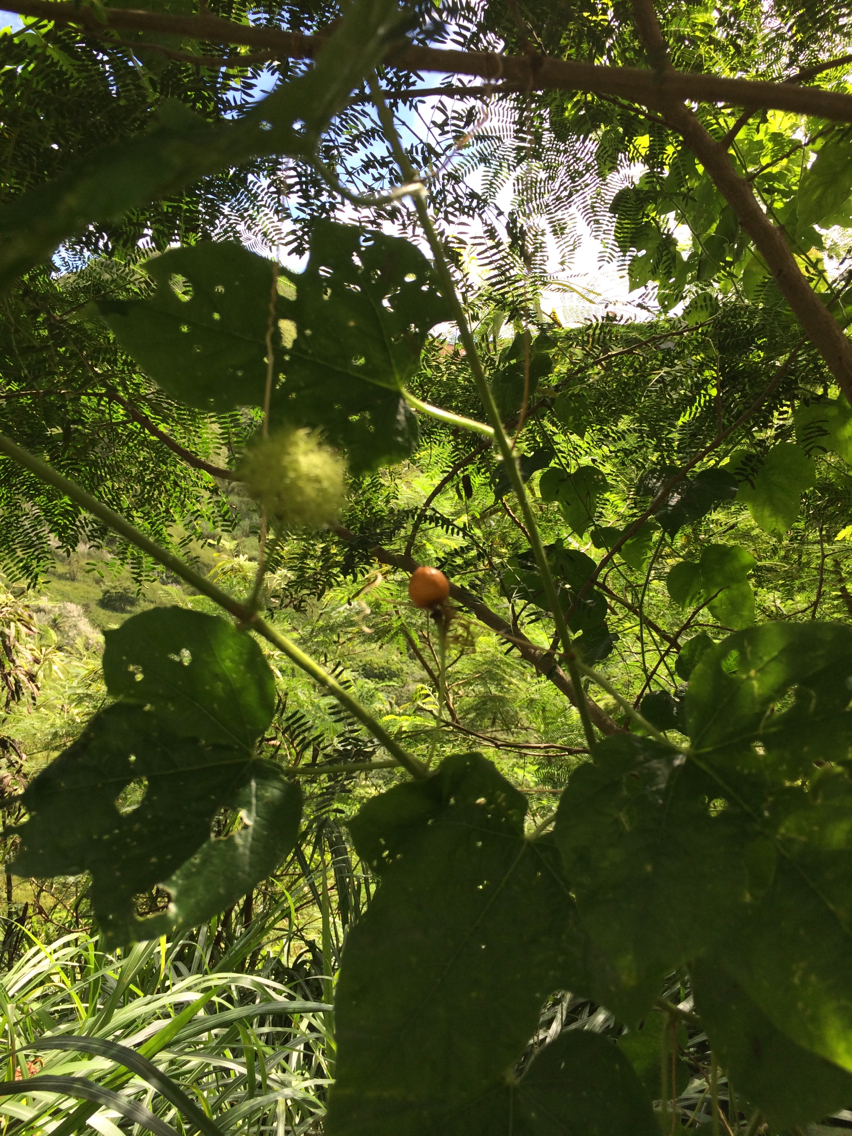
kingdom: Plantae
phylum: Tracheophyta
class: Magnoliopsida
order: Malpighiales
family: Passifloraceae
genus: Passiflora
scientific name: Passiflora foetida
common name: Fetid passionflower
